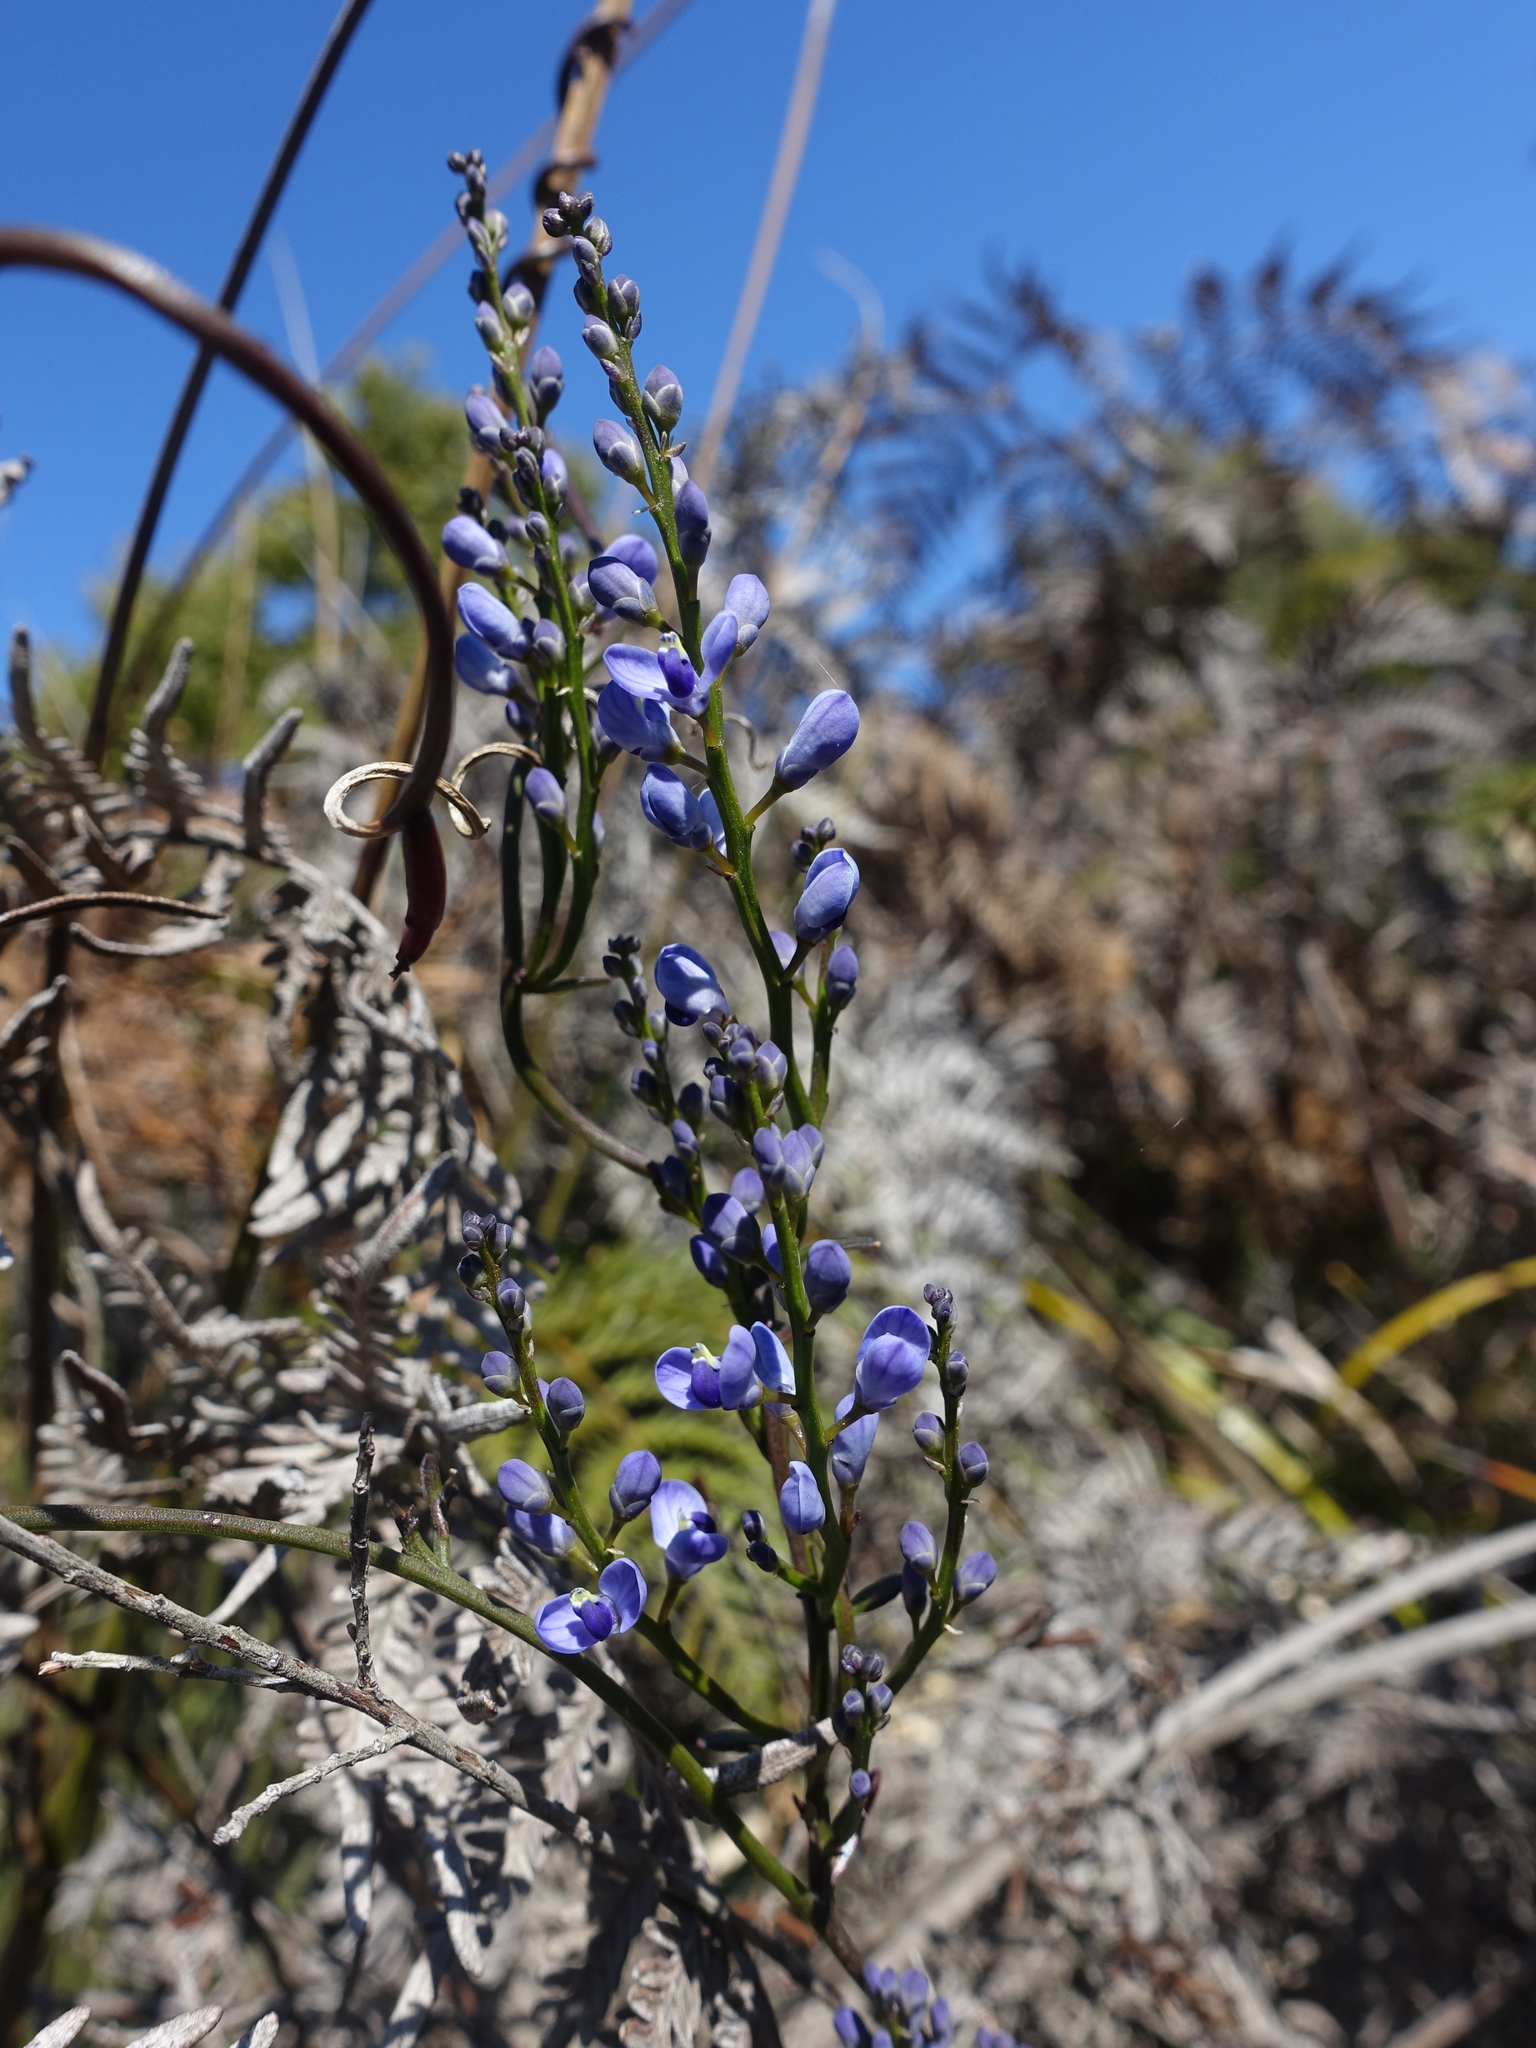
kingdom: Plantae
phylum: Tracheophyta
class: Magnoliopsida
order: Fabales
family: Polygalaceae
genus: Comesperma
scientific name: Comesperma volubile
